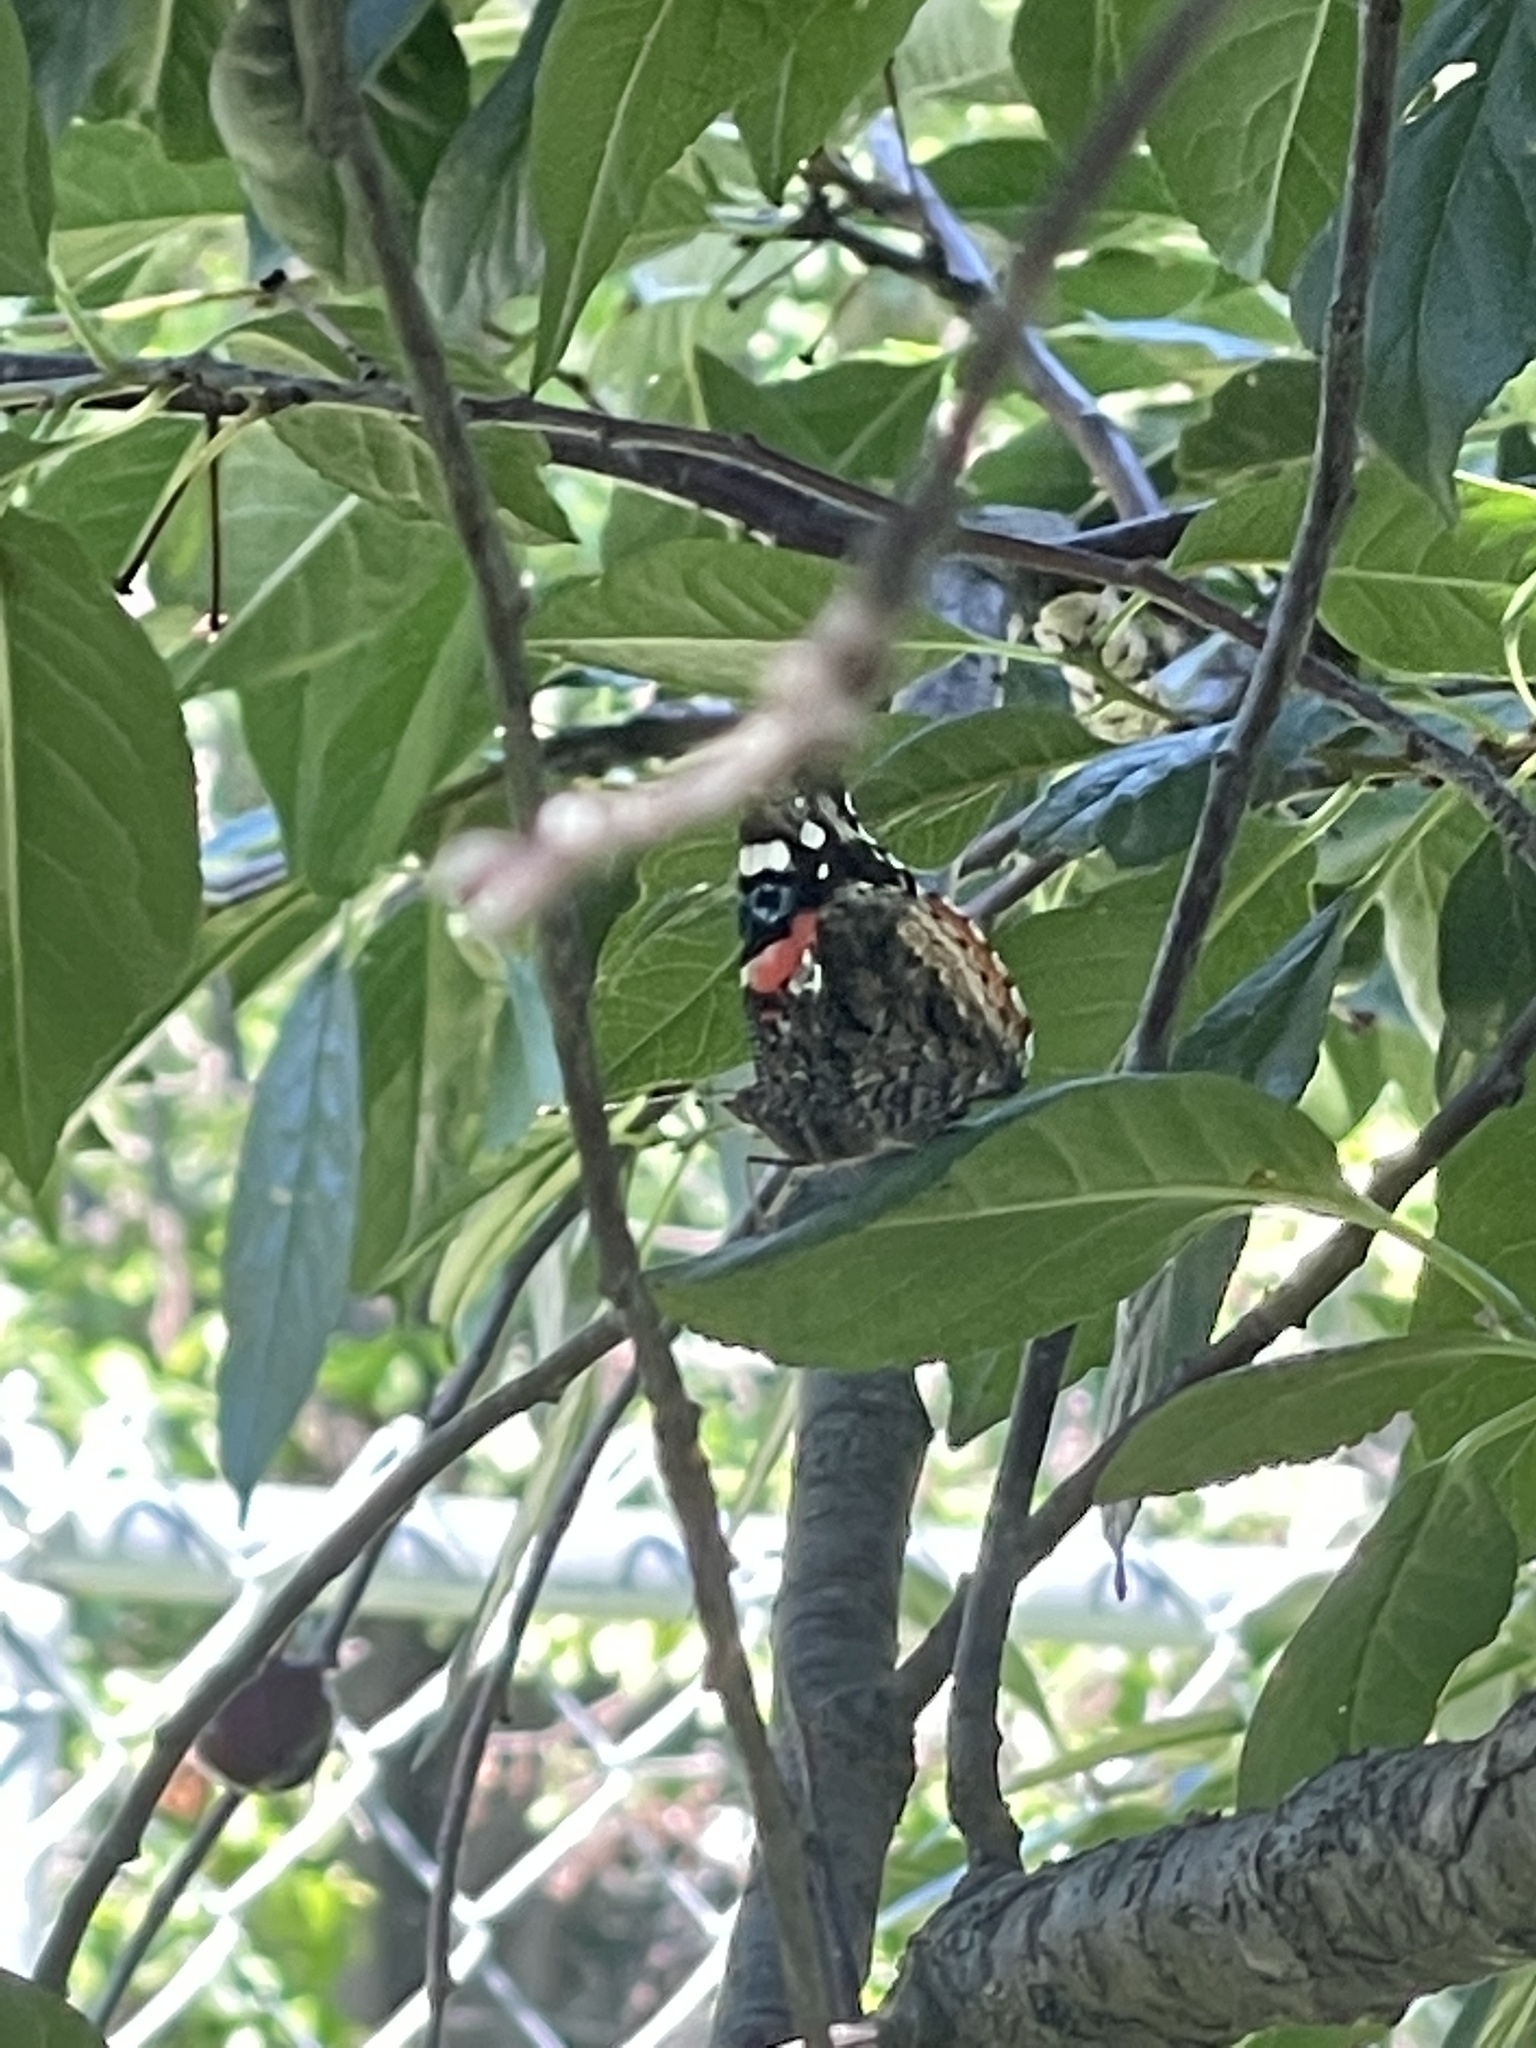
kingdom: Animalia
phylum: Arthropoda
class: Insecta
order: Lepidoptera
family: Nymphalidae
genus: Vanessa
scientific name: Vanessa atalanta
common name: Red admiral
